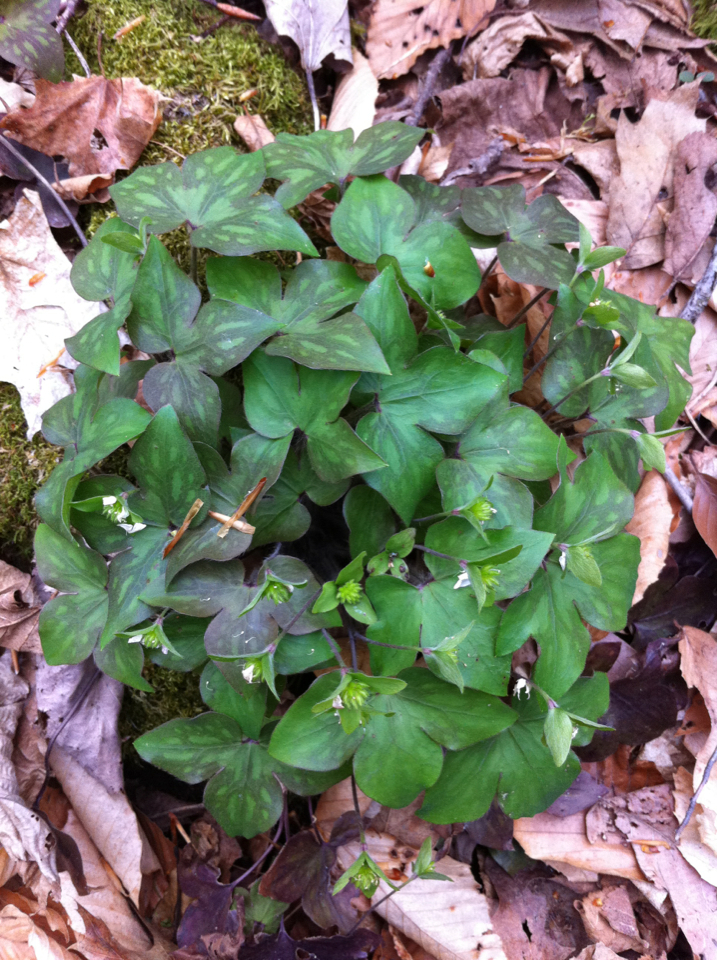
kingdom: Plantae
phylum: Tracheophyta
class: Magnoliopsida
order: Ranunculales
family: Ranunculaceae
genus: Hepatica
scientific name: Hepatica acutiloba
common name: Sharp-lobed hepatica
